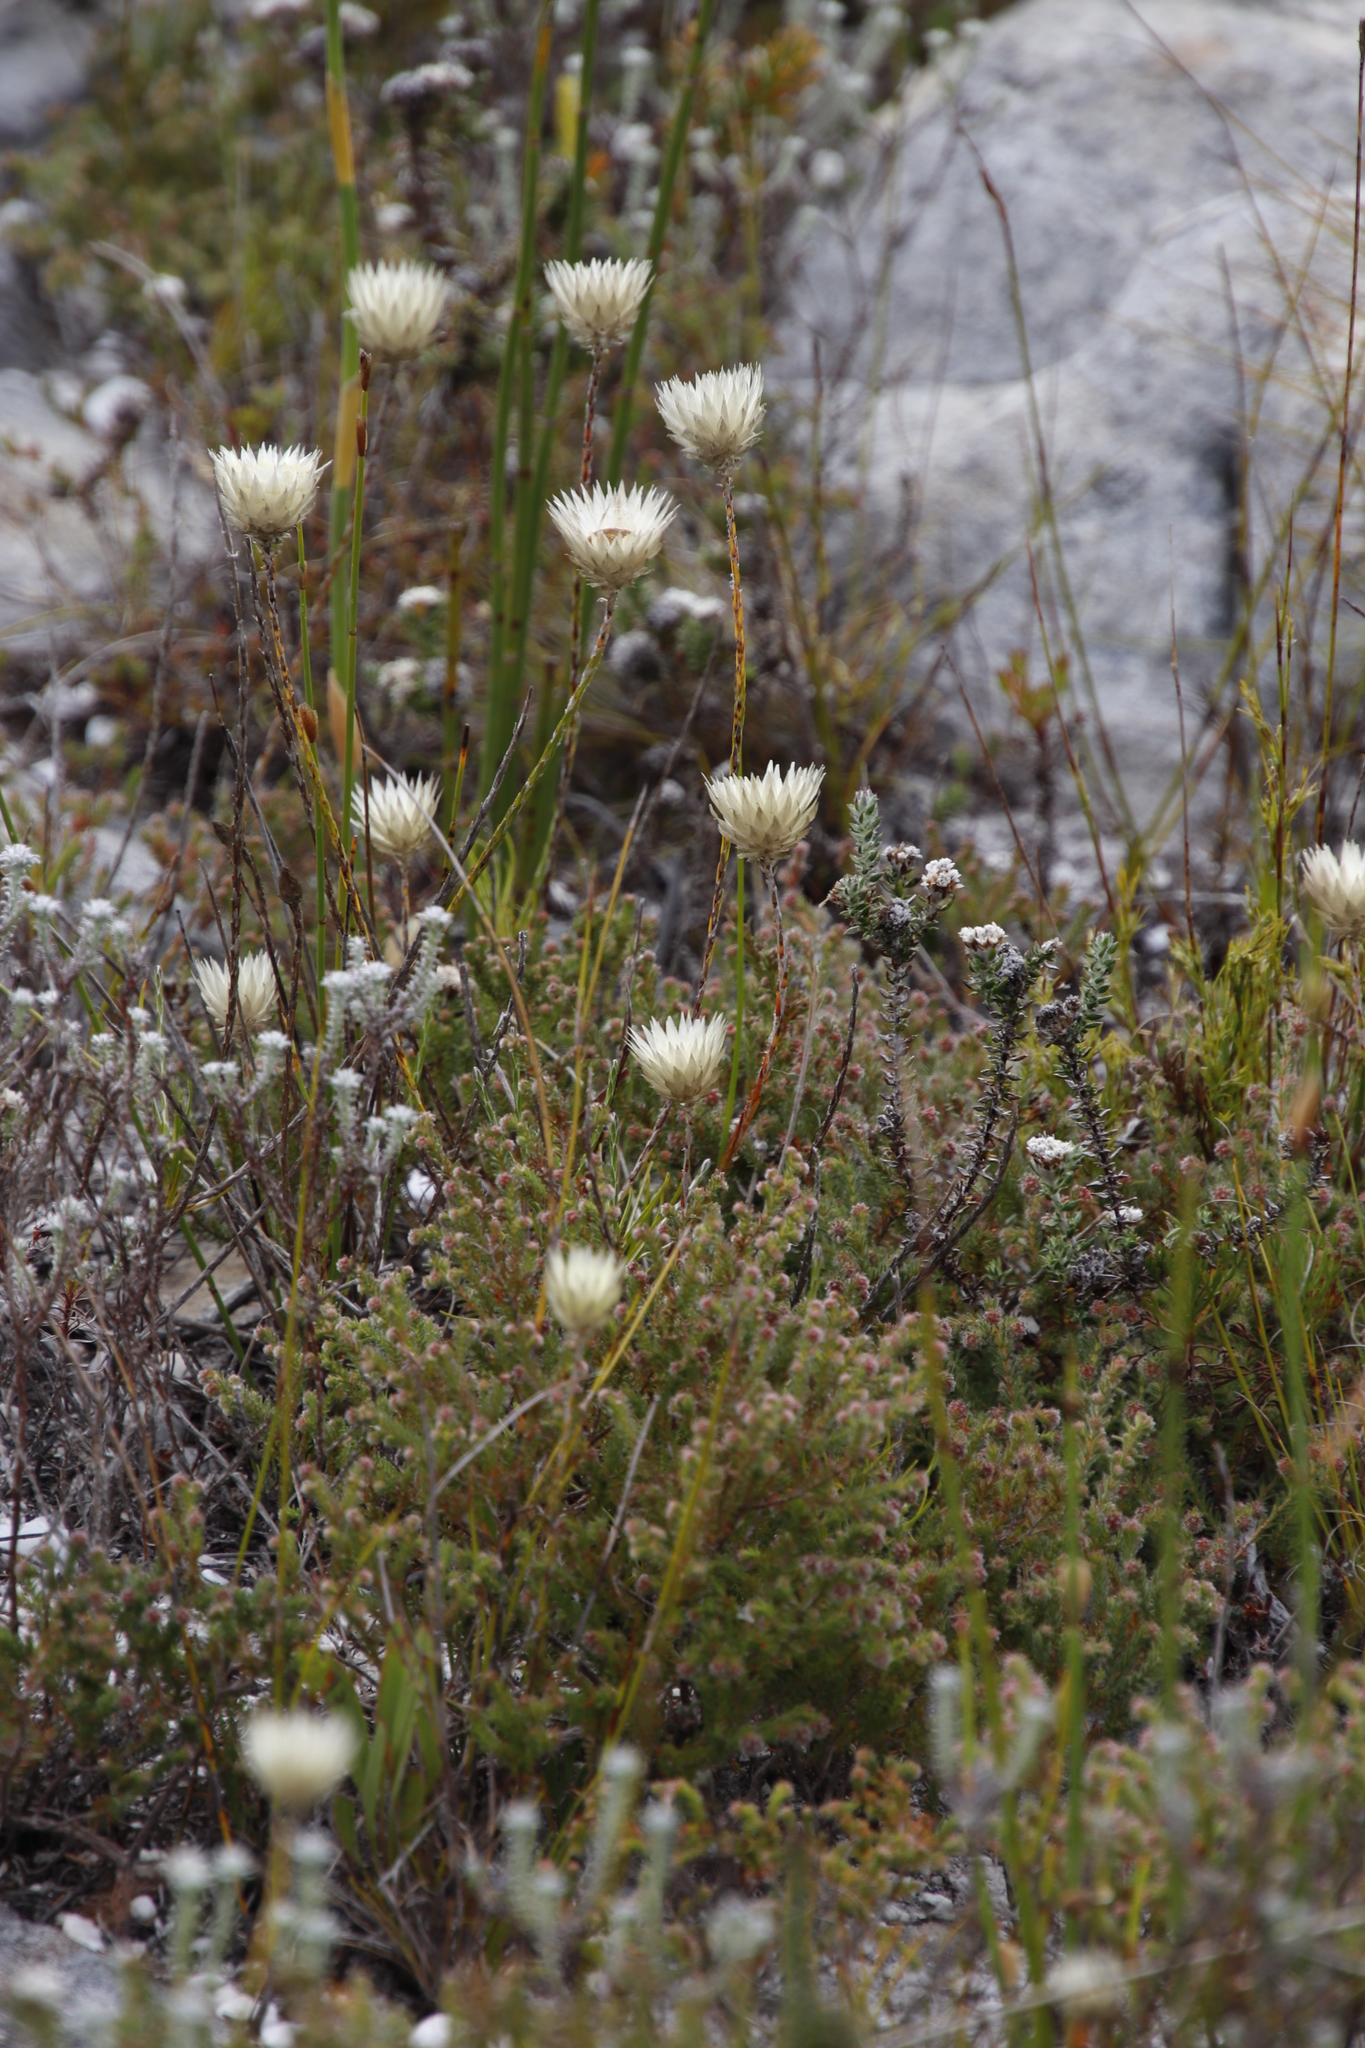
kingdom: Plantae
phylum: Tracheophyta
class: Magnoliopsida
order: Asterales
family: Asteraceae
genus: Edmondia
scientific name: Edmondia sesamoides
